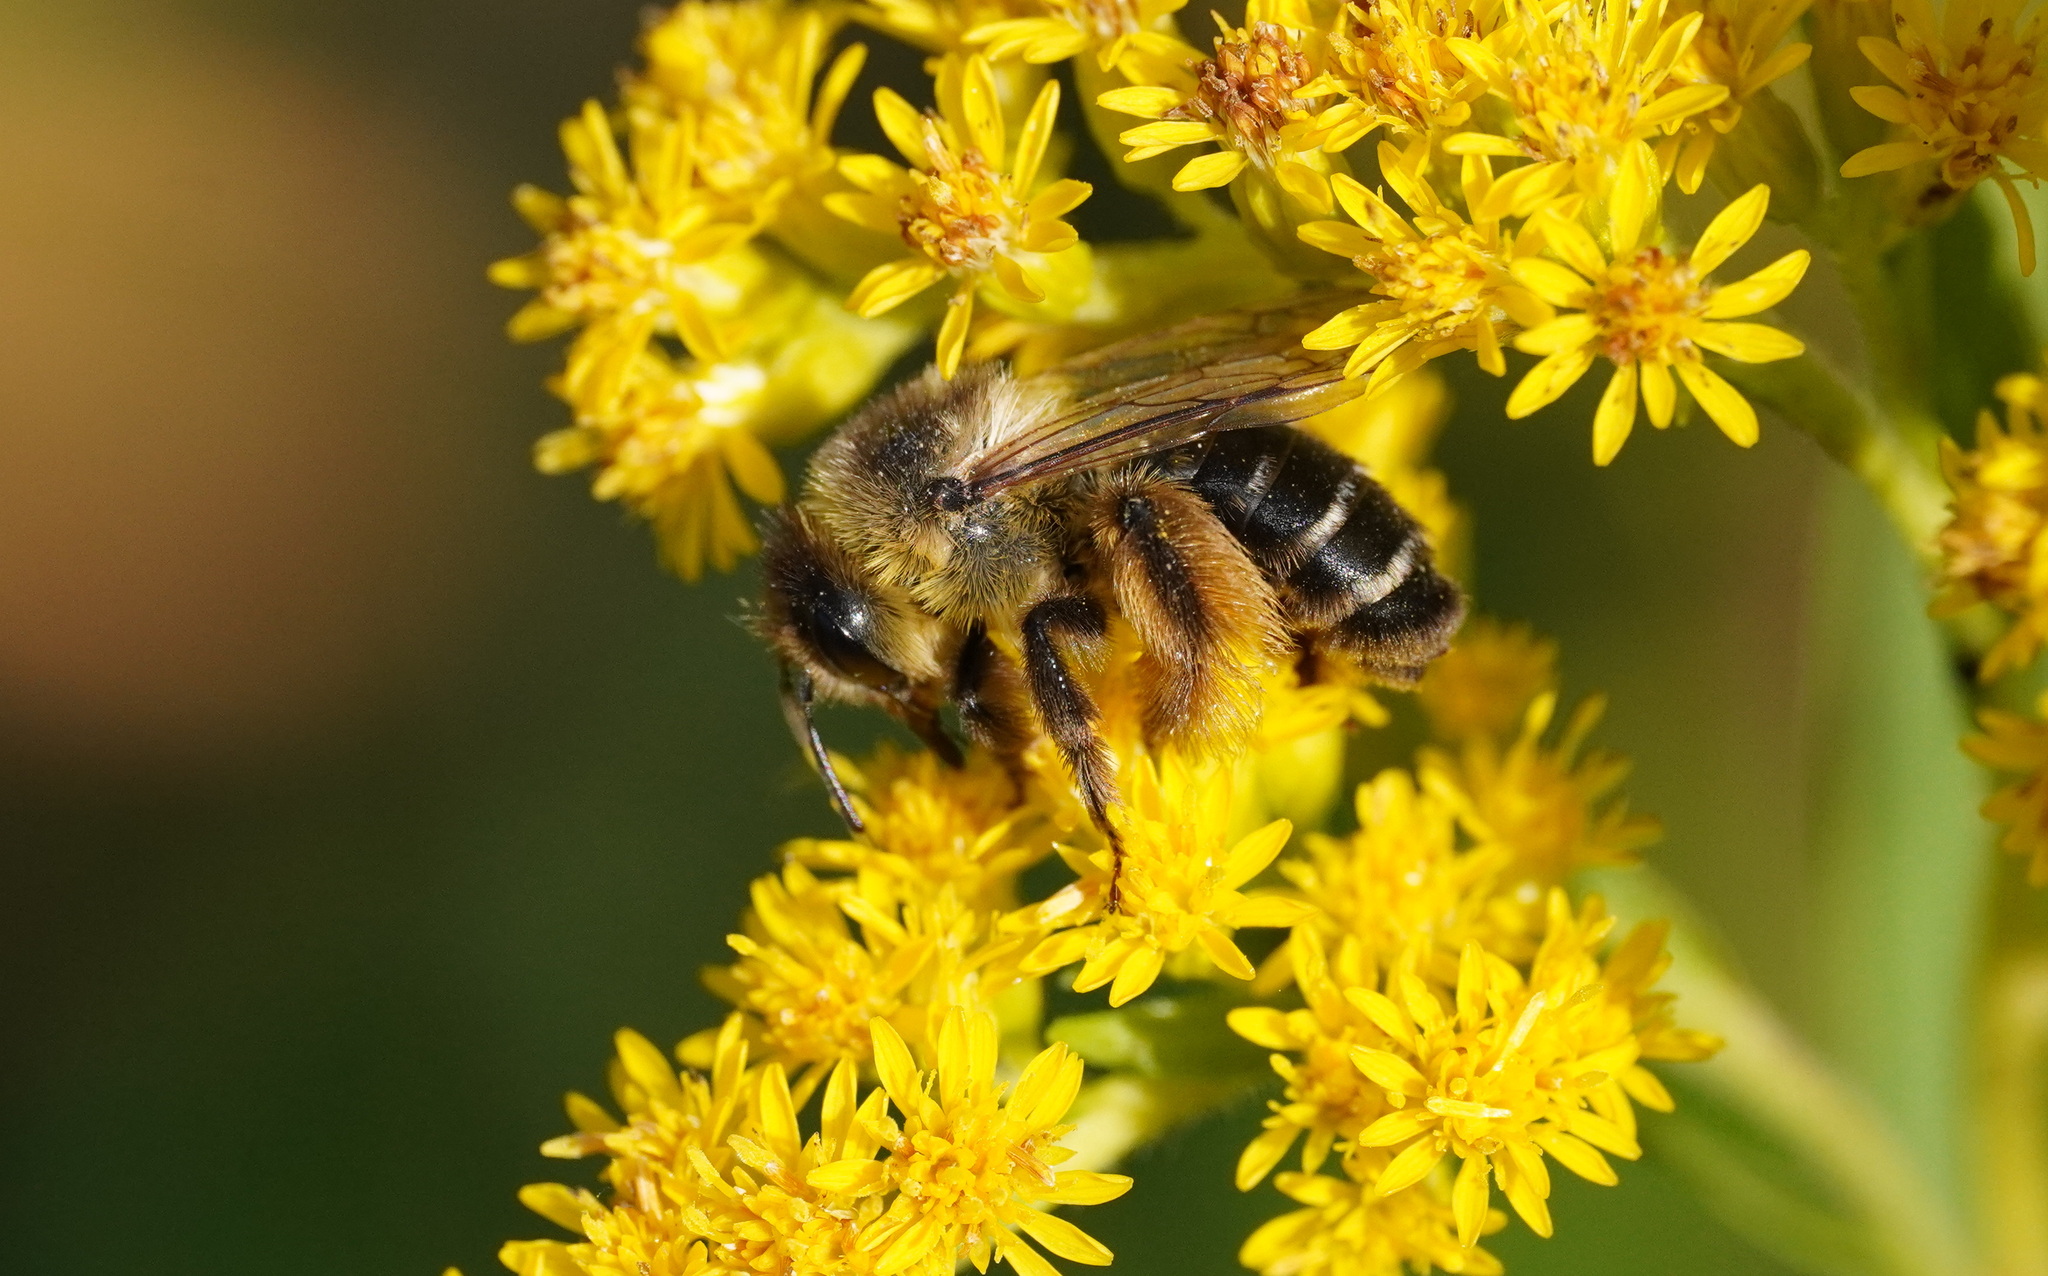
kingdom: Animalia
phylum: Arthropoda
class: Insecta
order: Hymenoptera
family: Melittidae
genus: Dasypoda
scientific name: Dasypoda hirtipes
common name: Pantaloon bee
